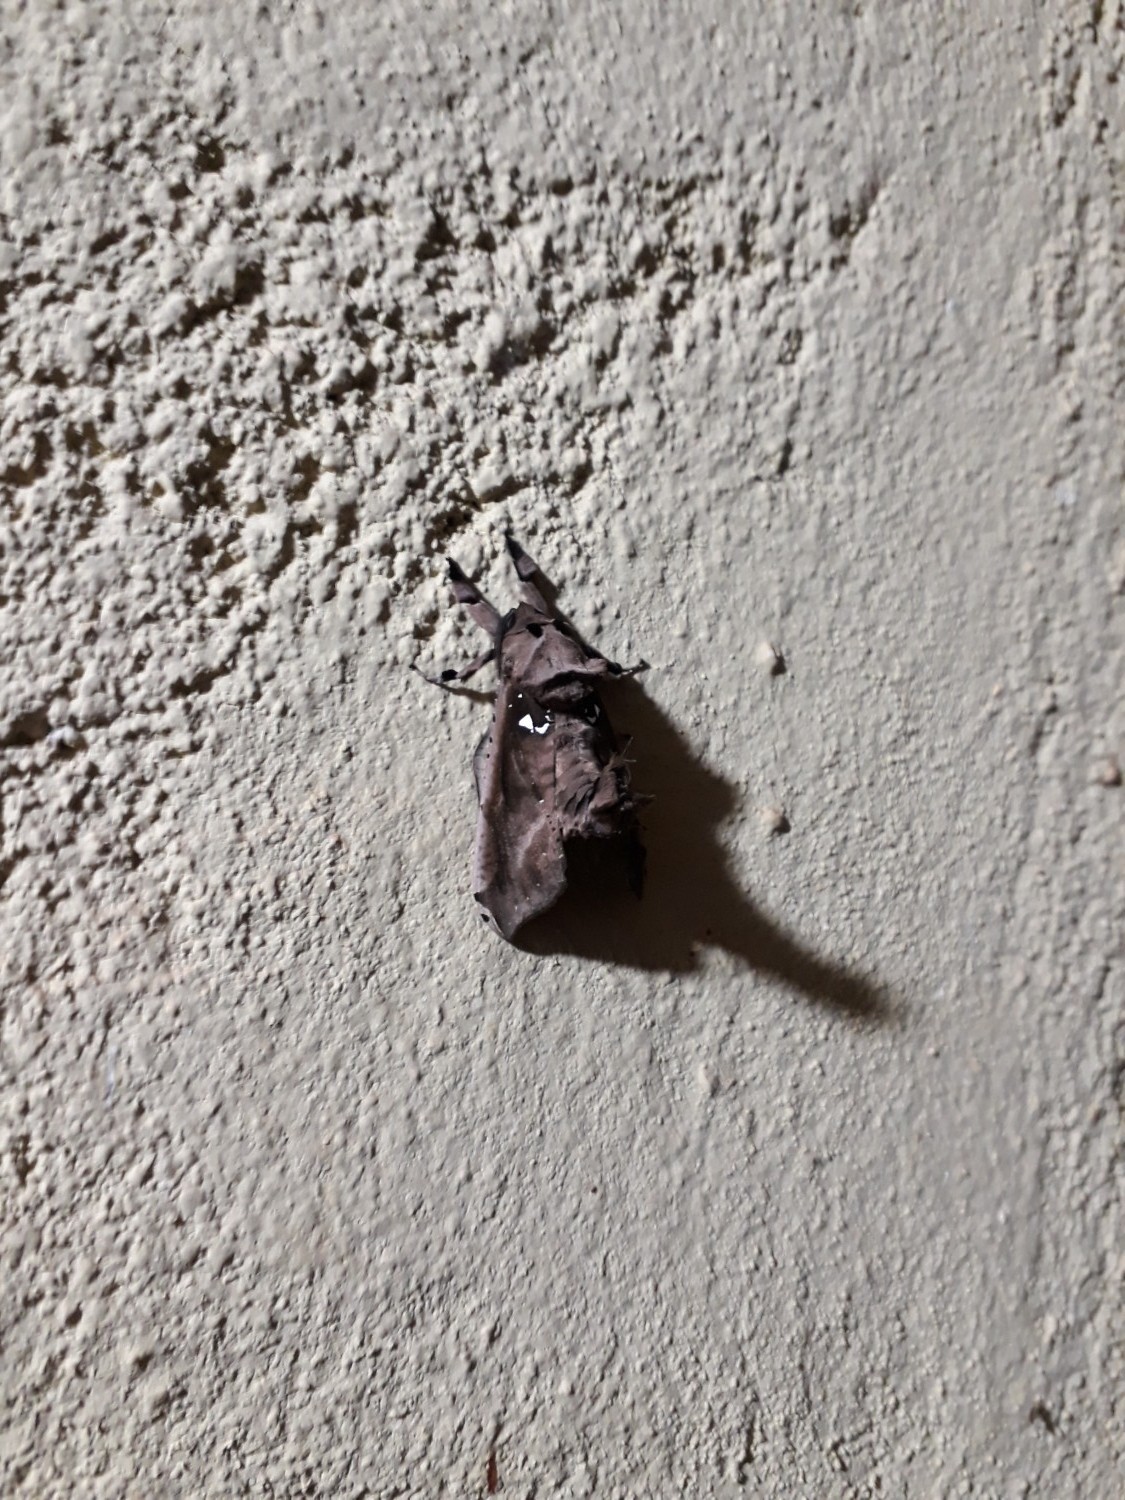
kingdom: Animalia
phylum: Arthropoda
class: Insecta
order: Lepidoptera
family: Cossidae
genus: Langsdorfia
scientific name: Langsdorfia franckii
